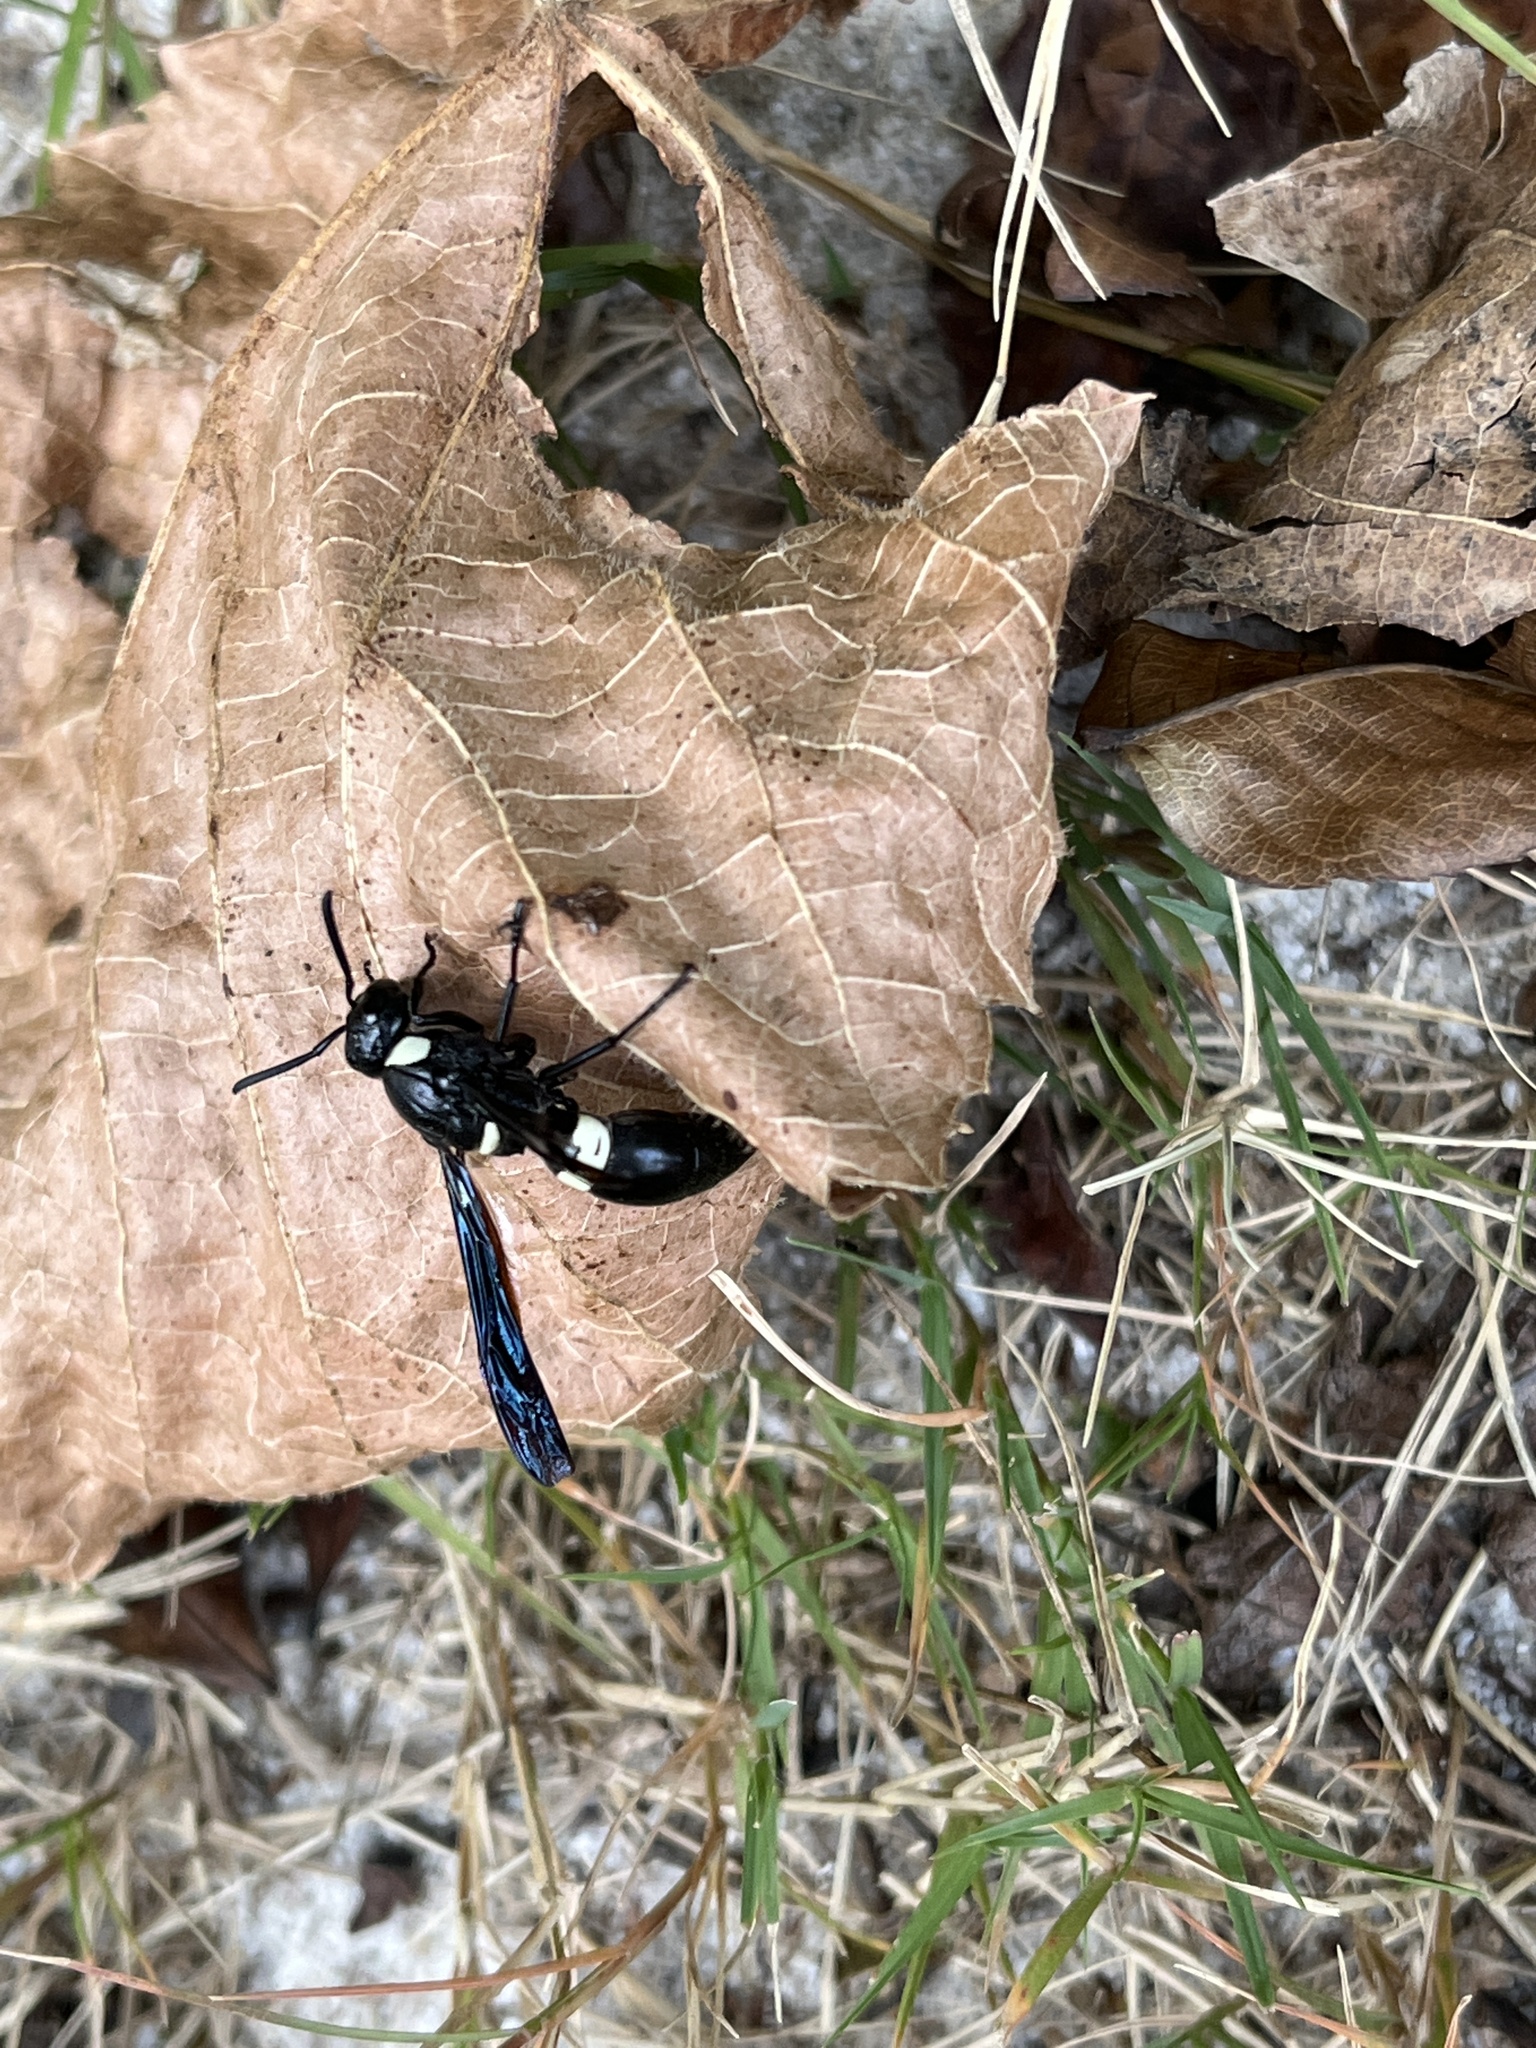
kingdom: Animalia
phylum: Arthropoda
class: Insecta
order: Hymenoptera
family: Eumenidae
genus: Monobia
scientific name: Monobia quadridens
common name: Four-toothed mason wasp
